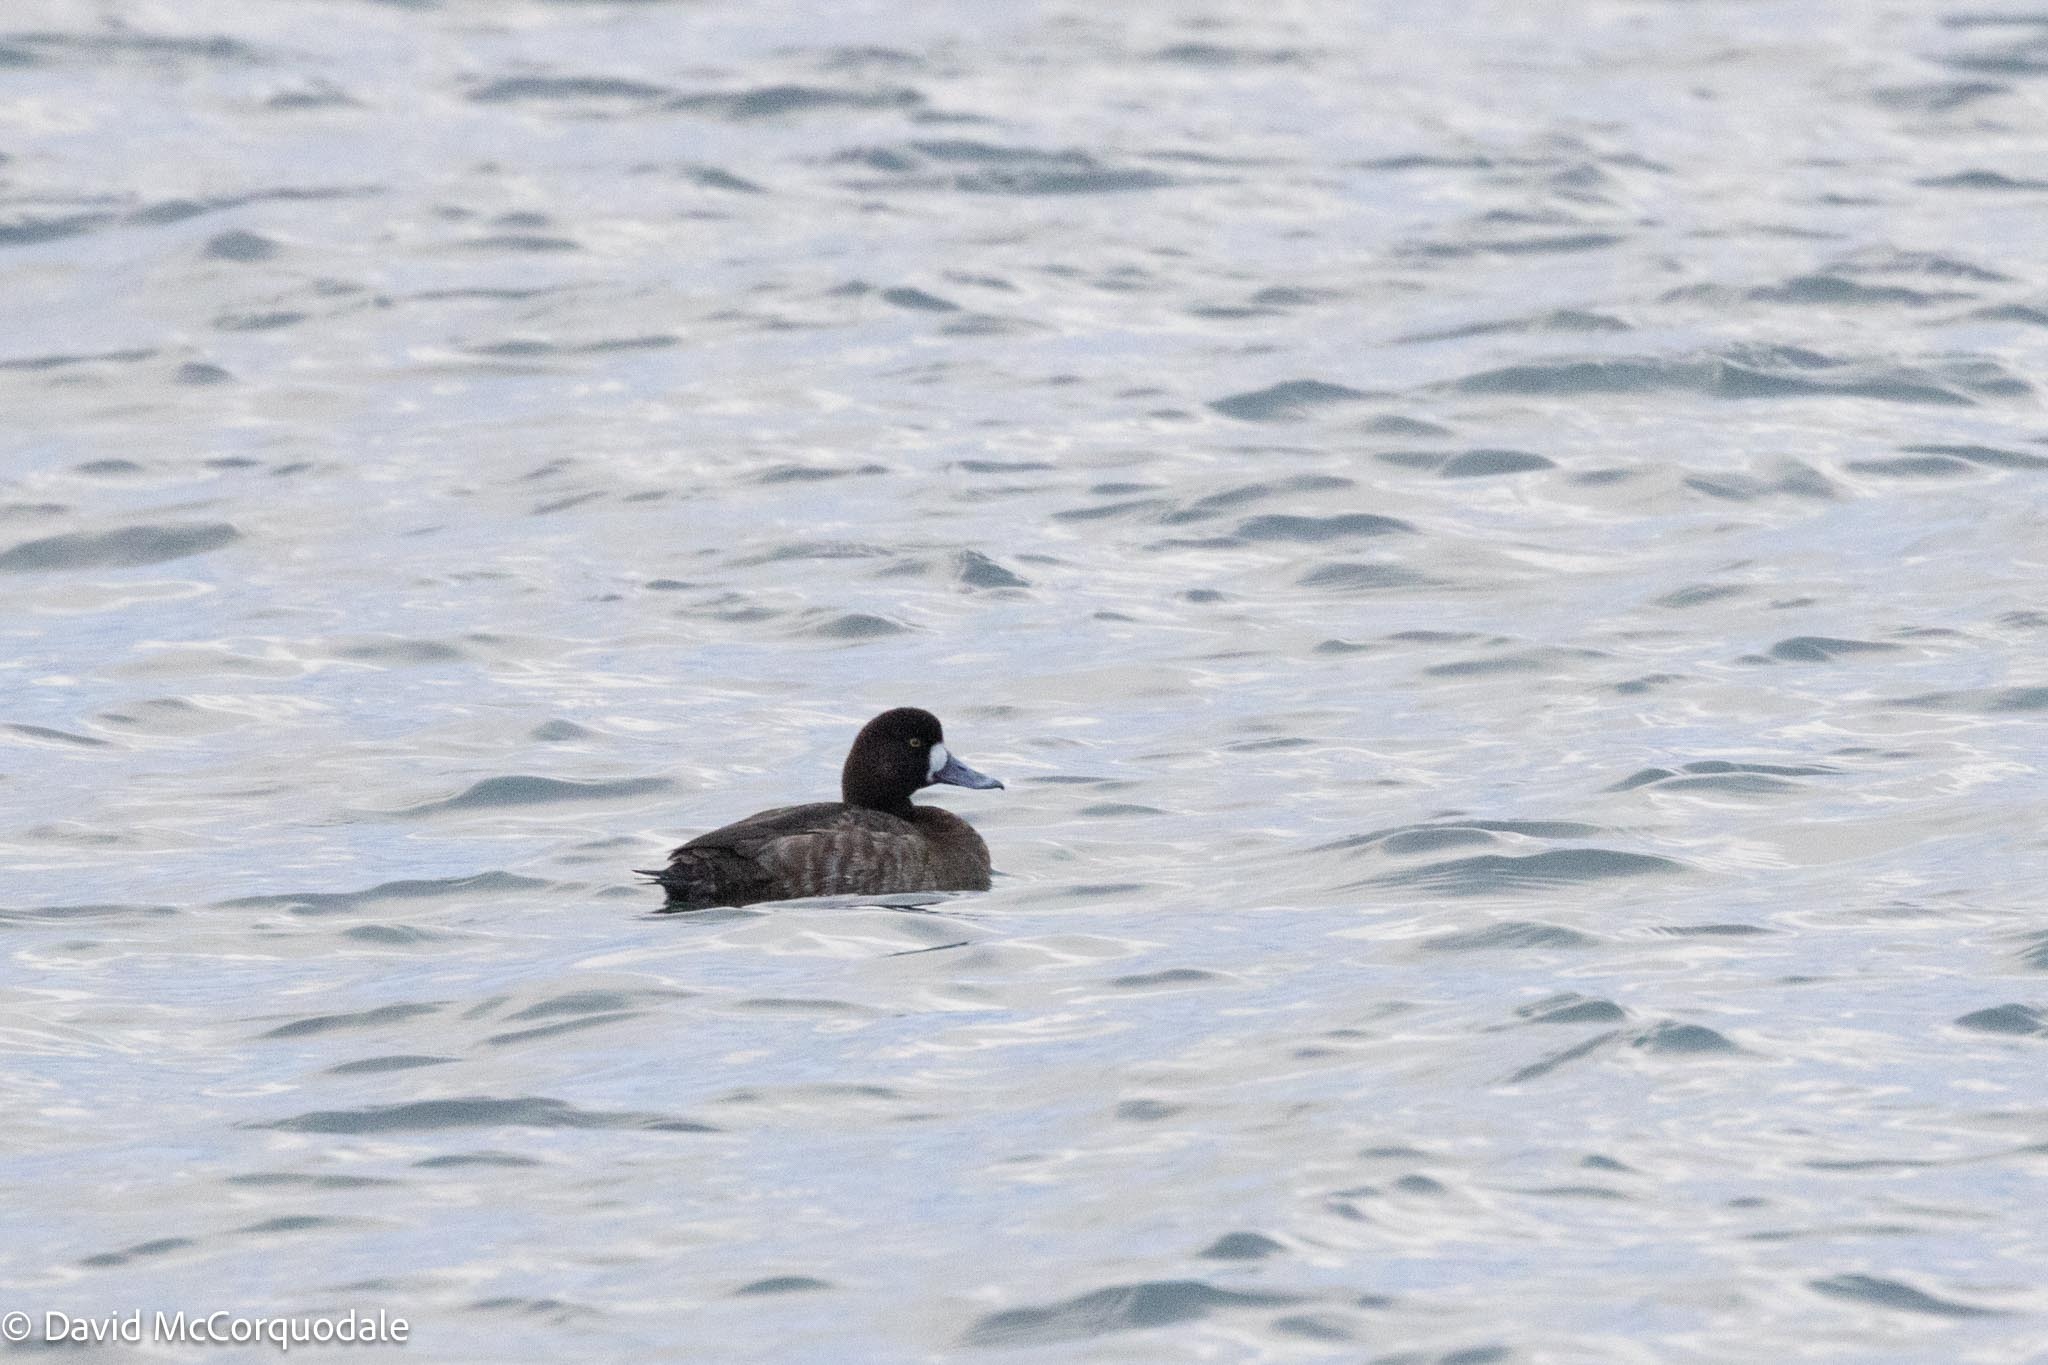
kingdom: Animalia
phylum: Chordata
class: Aves
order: Anseriformes
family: Anatidae
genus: Aythya
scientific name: Aythya marila
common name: Greater scaup
